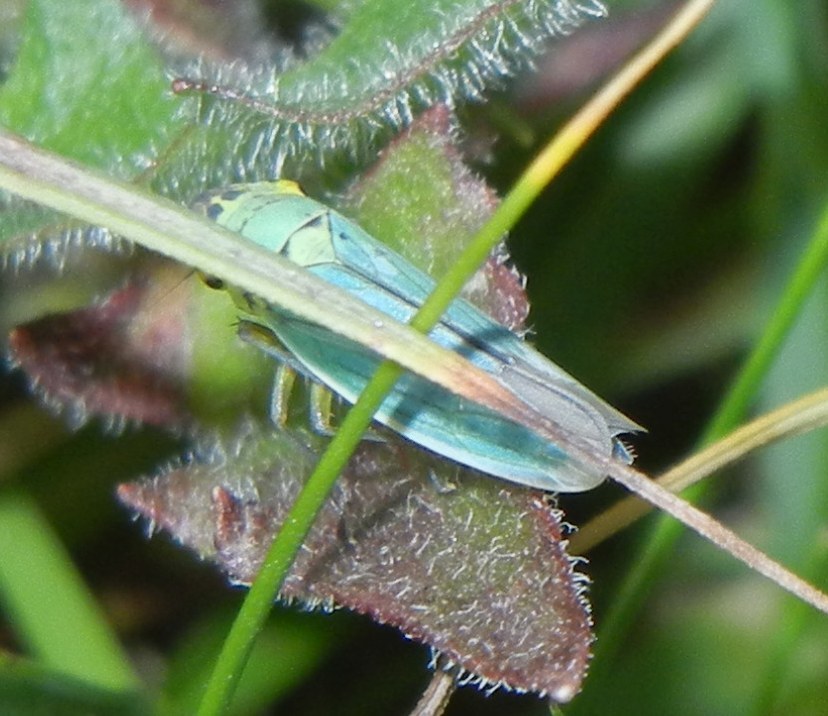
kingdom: Animalia
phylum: Arthropoda
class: Insecta
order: Hemiptera
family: Cicadellidae
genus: Cicadella
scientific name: Cicadella viridis
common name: Leafhopper
